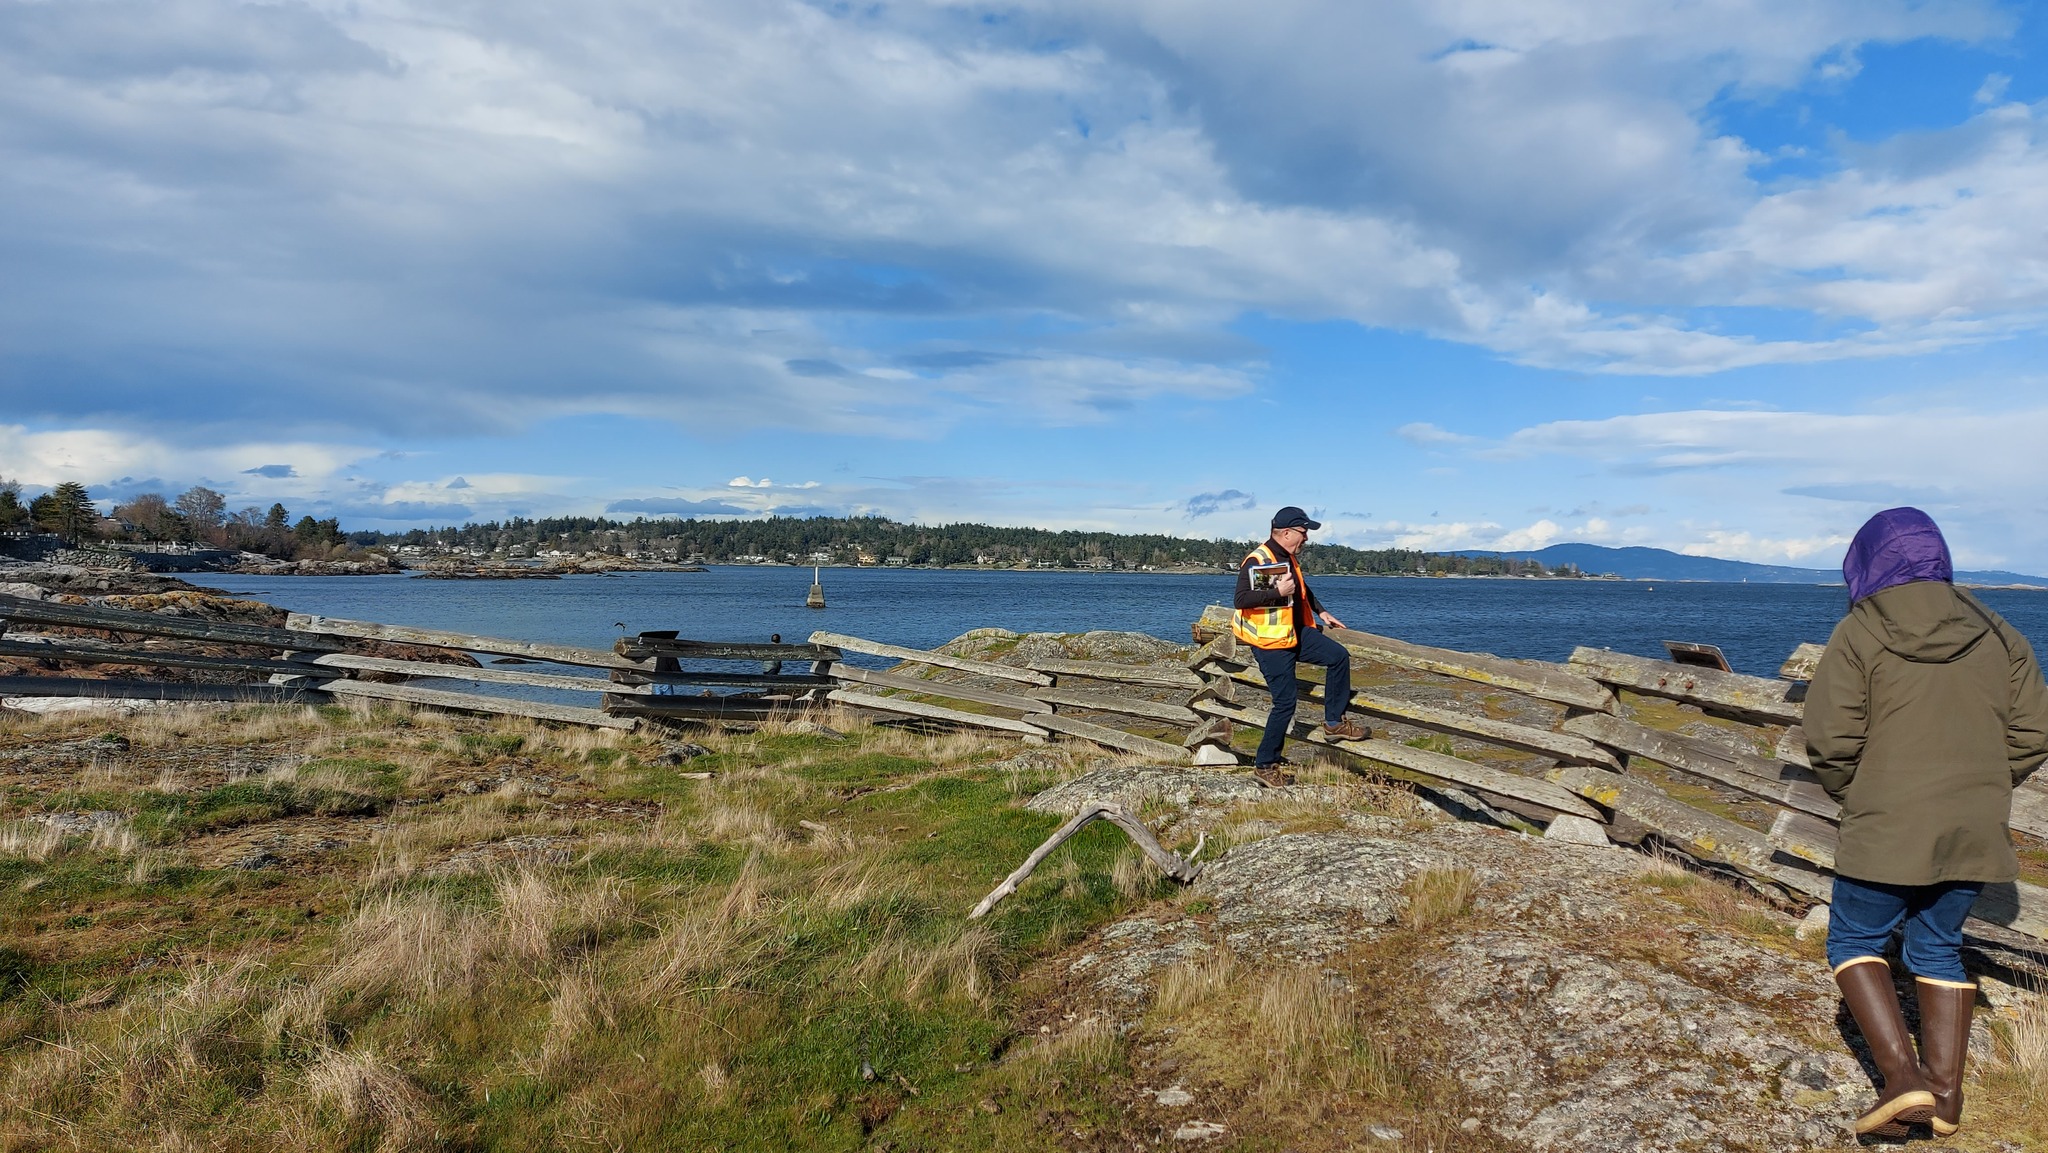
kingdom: Plantae
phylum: Tracheophyta
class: Magnoliopsida
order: Lamiales
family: Orobanchaceae
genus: Castilleja
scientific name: Castilleja victoriae
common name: Victoria paintbrush
